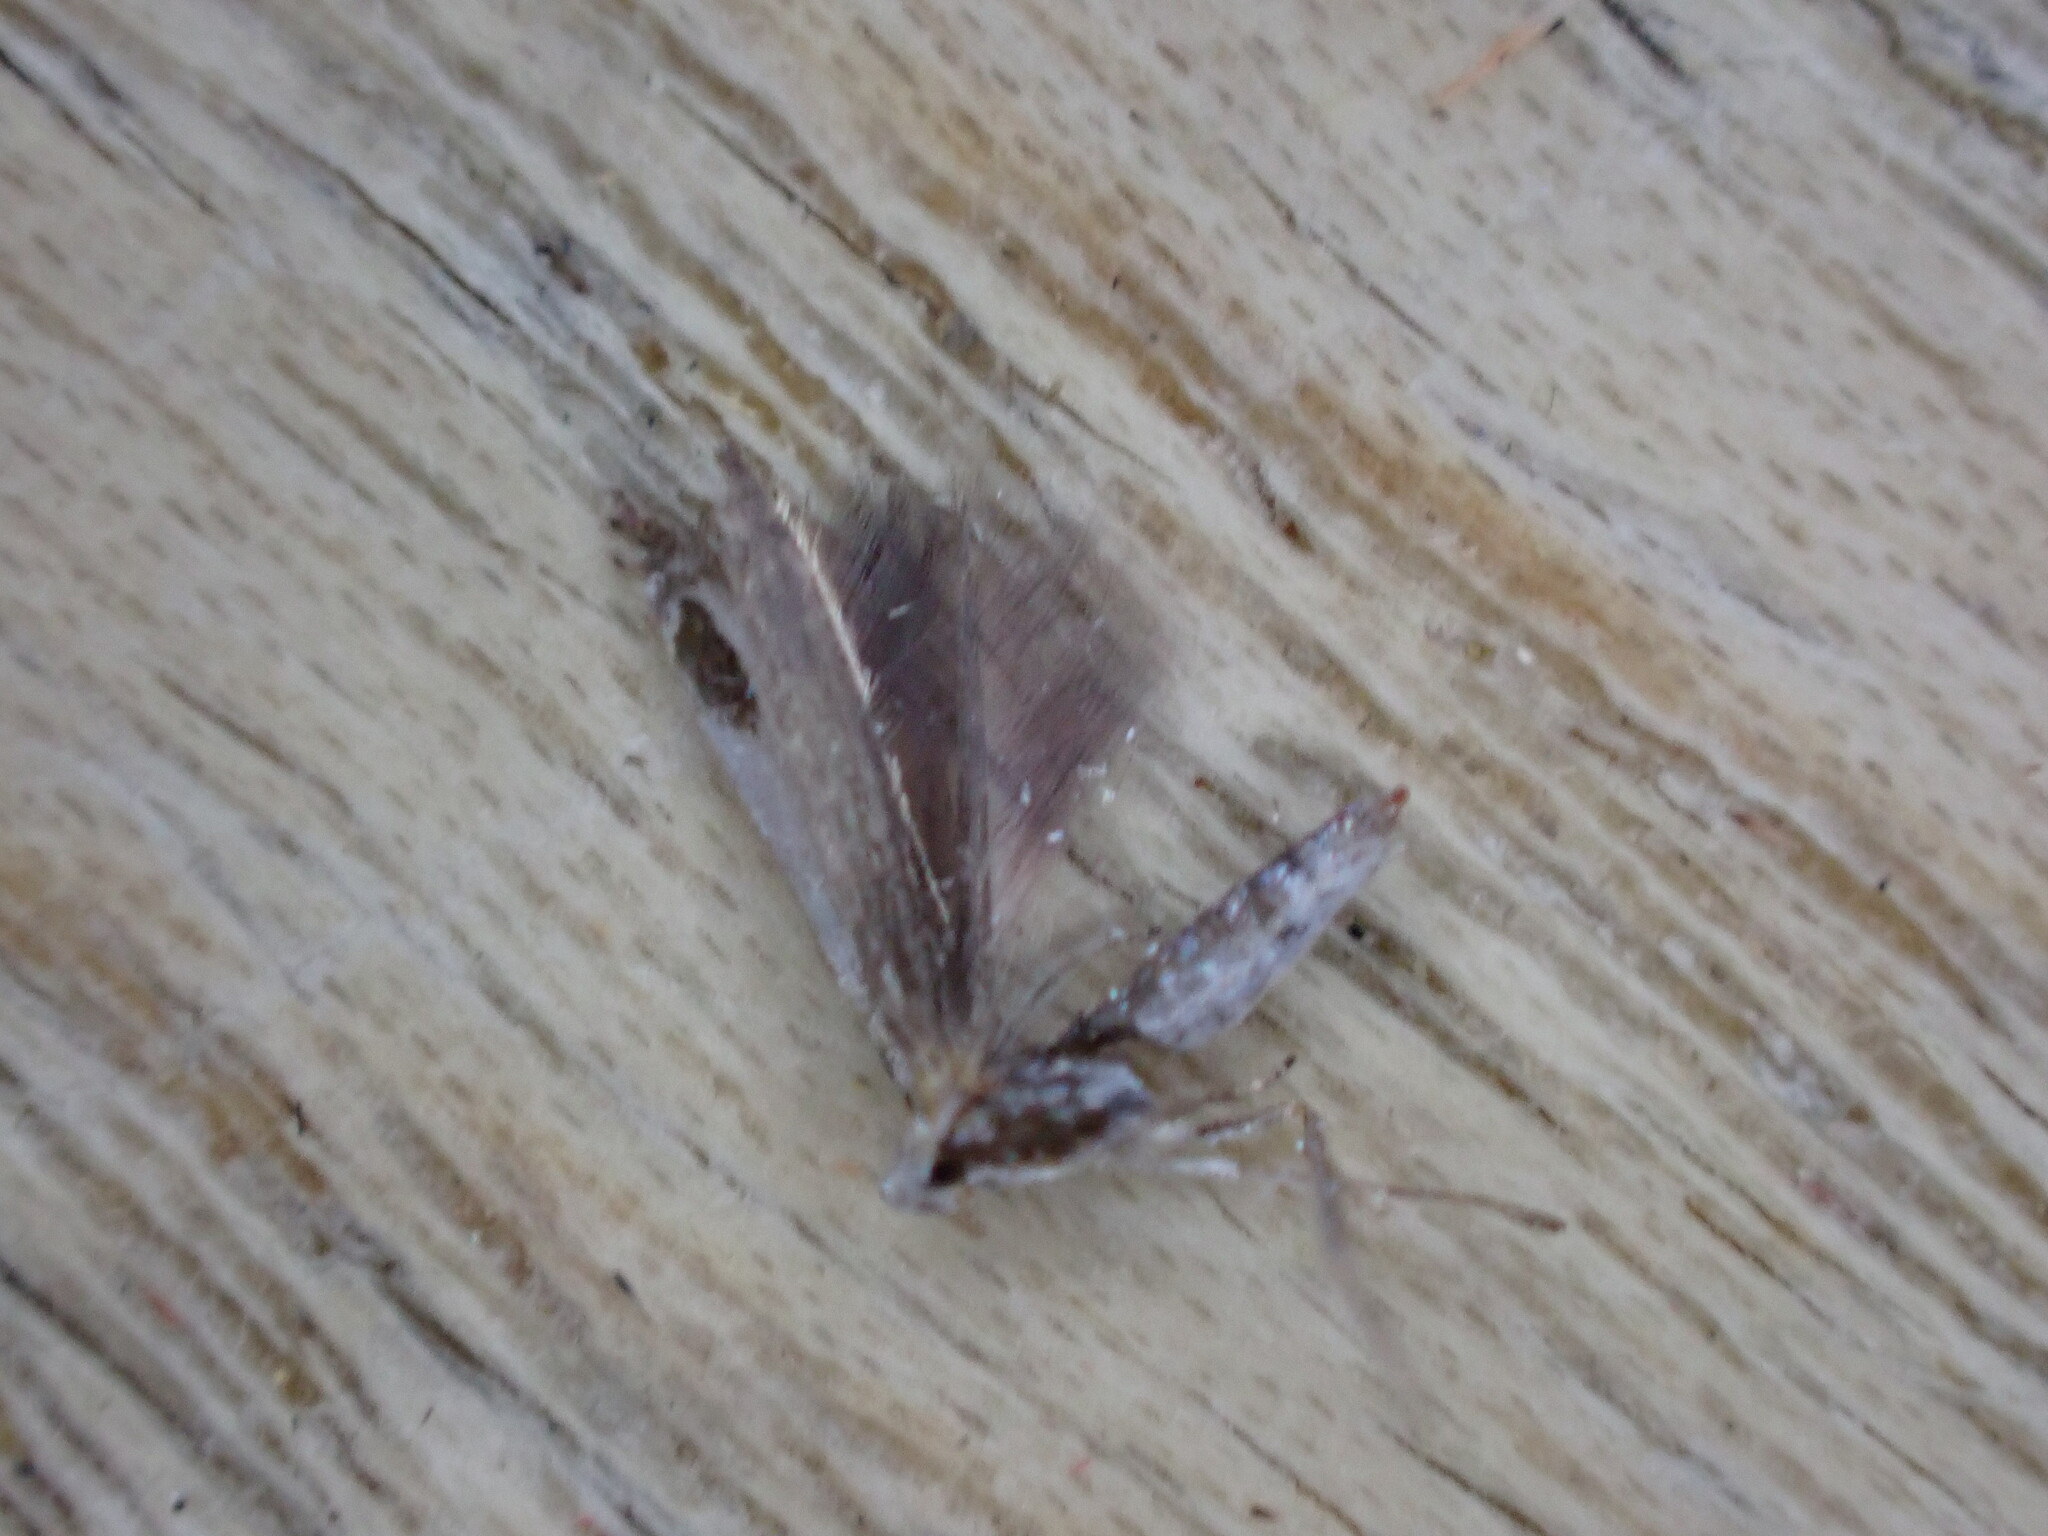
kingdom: Animalia
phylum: Arthropoda
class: Insecta
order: Lepidoptera
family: Lyonetiidae
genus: Lyonetia
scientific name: Lyonetia clerkella
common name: Apple leaf miner
